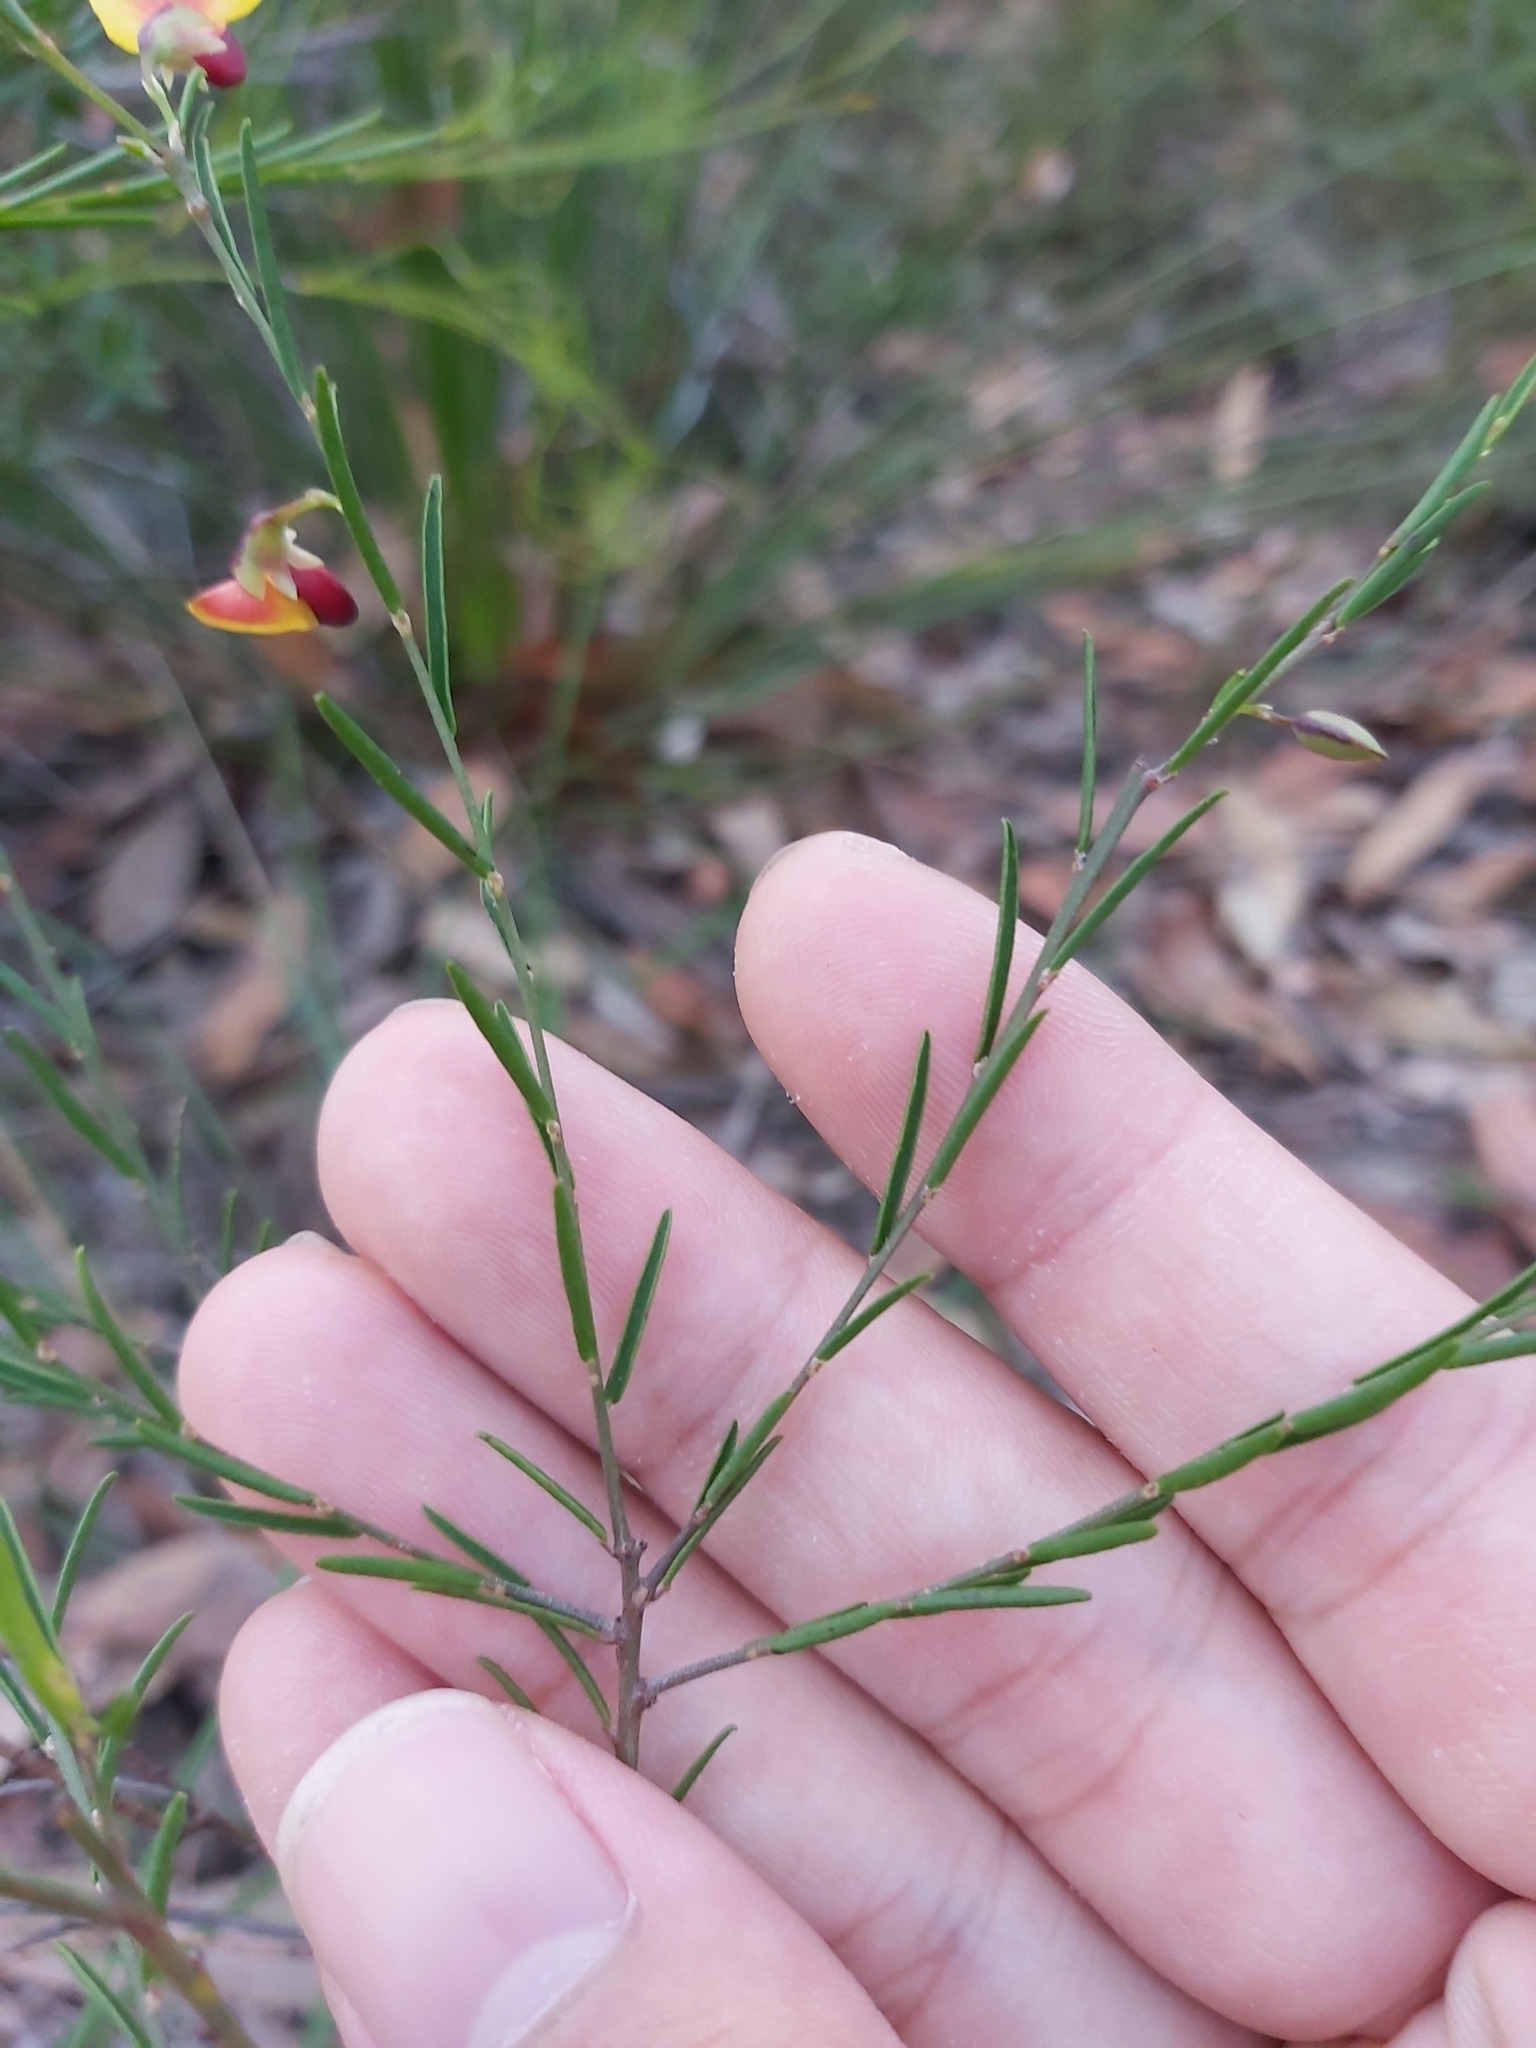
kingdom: Plantae
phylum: Tracheophyta
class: Magnoliopsida
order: Fabales
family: Fabaceae
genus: Bossiaea
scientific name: Bossiaea heterophylla
